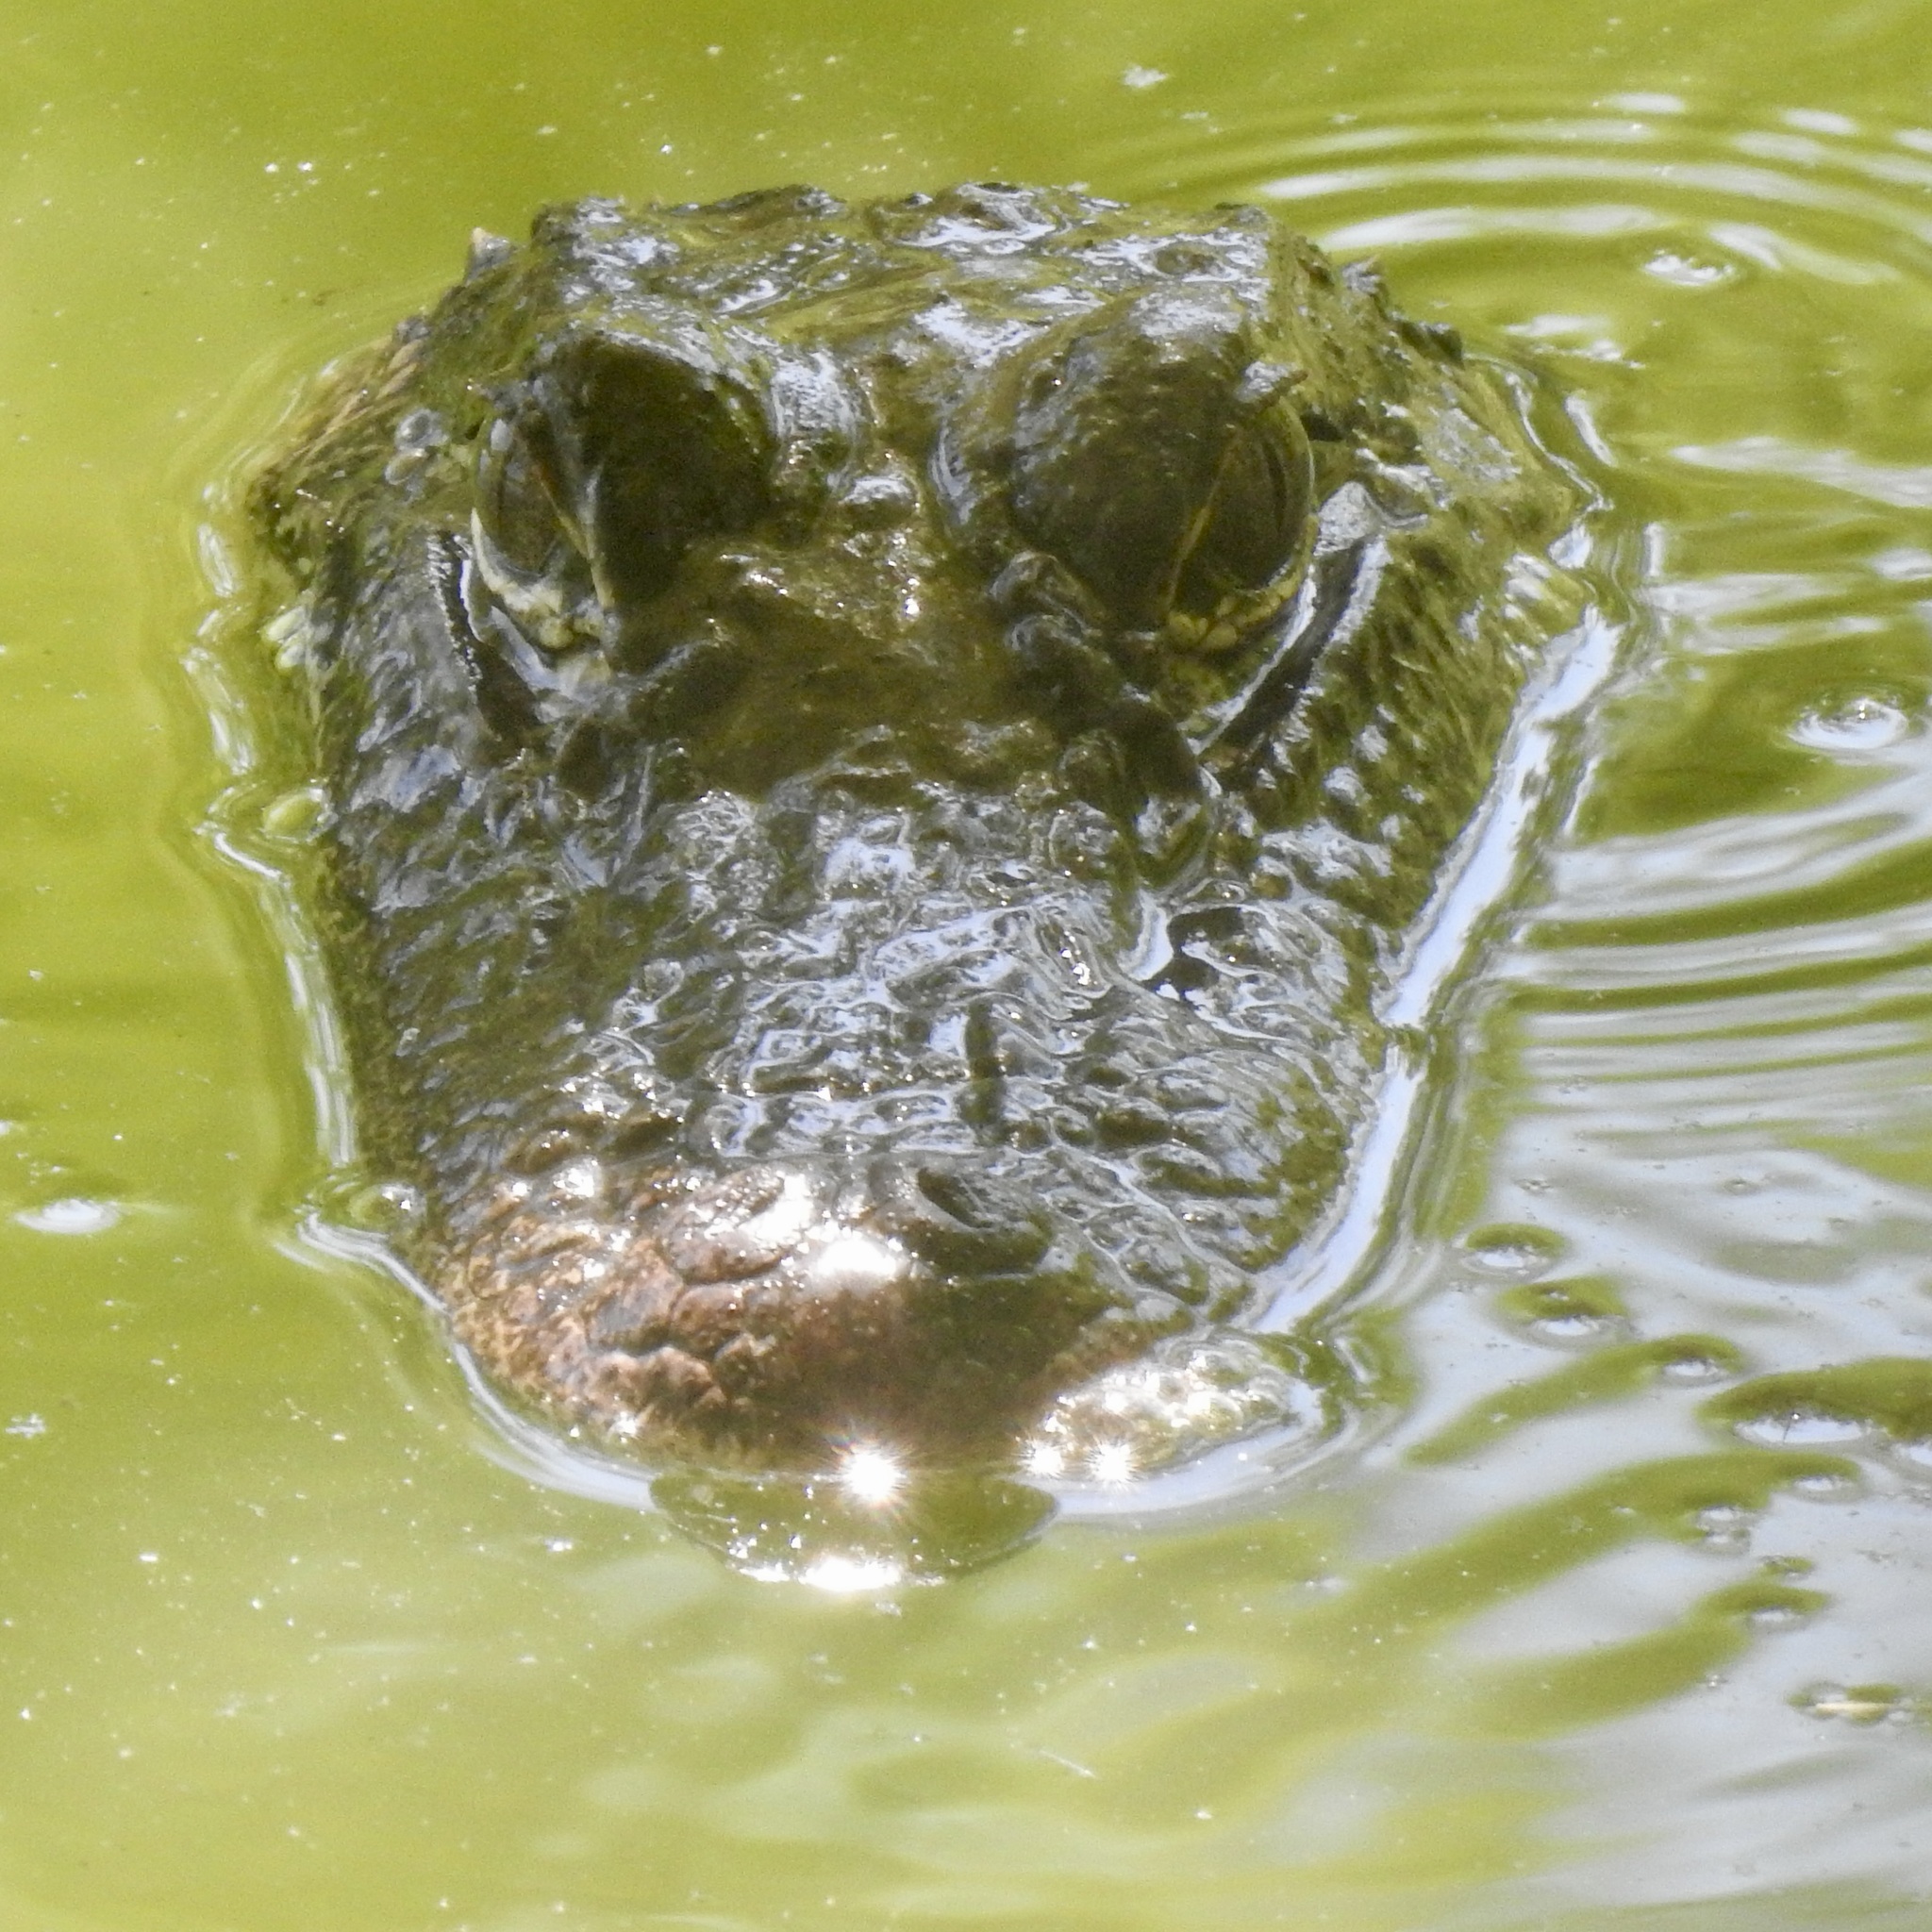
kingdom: Animalia
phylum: Chordata
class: Crocodylia
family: Alligatoridae
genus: Alligator
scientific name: Alligator mississippiensis
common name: American alligator
